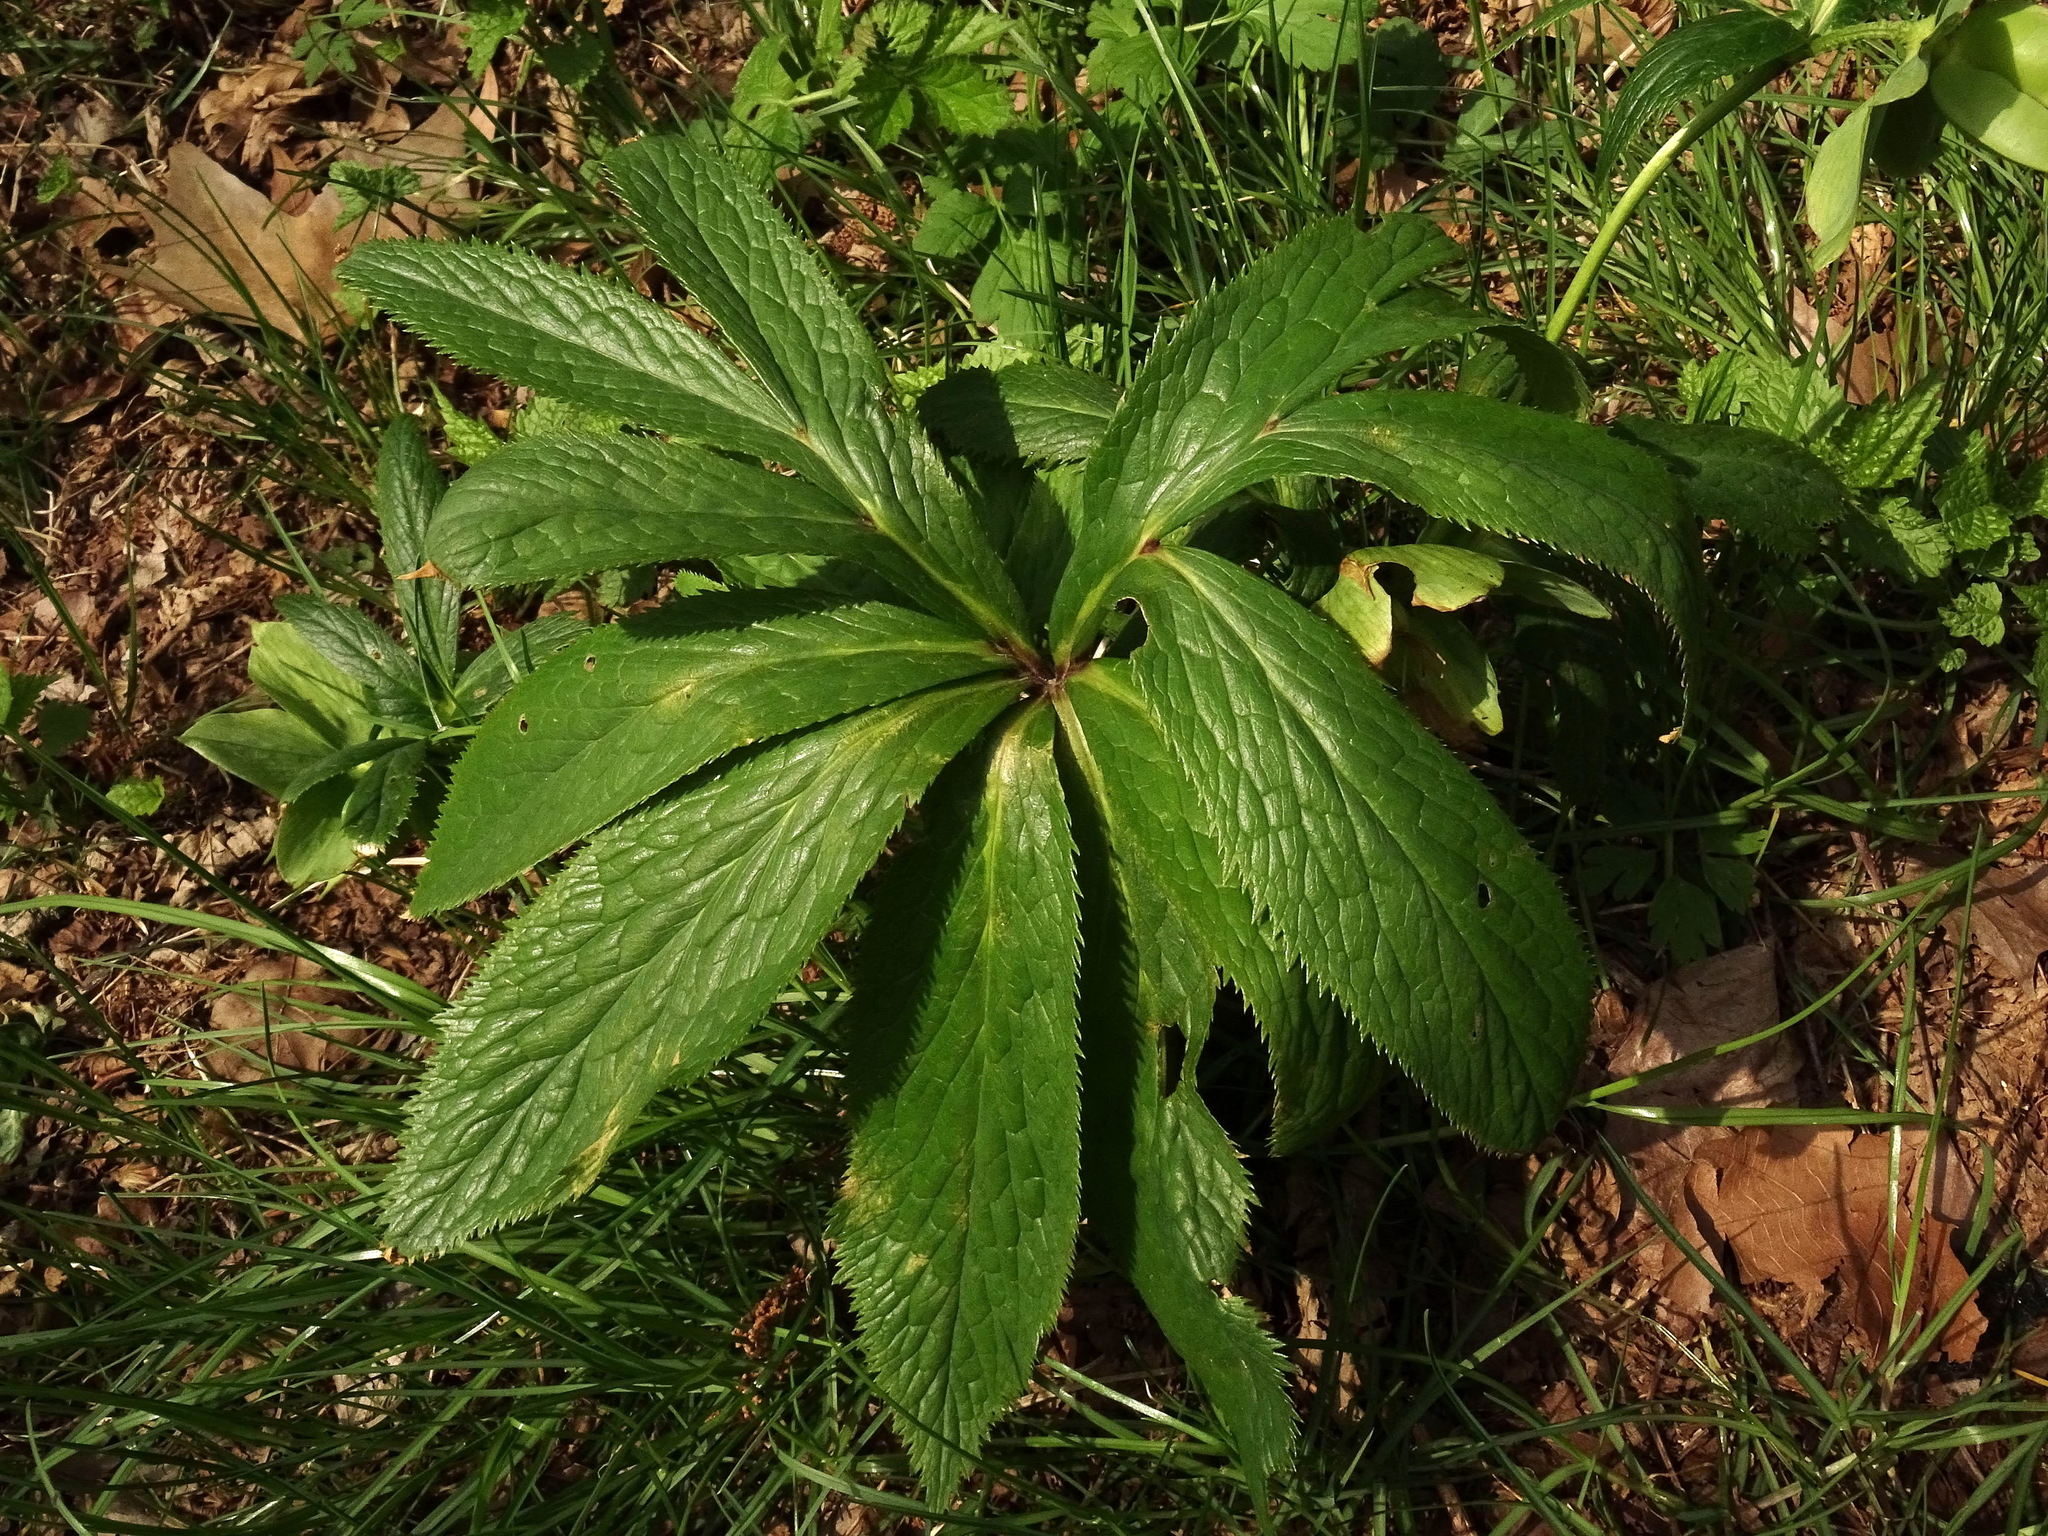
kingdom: Plantae
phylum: Tracheophyta
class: Magnoliopsida
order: Ranunculales
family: Ranunculaceae
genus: Helleborus
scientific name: Helleborus viridis
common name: Green hellebore
